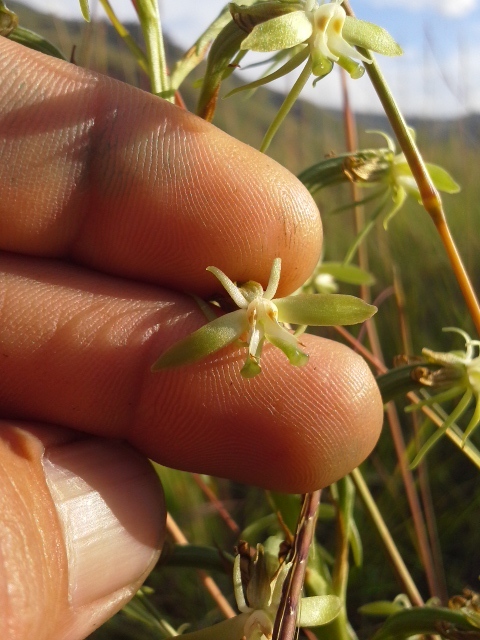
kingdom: Plantae
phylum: Tracheophyta
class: Liliopsida
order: Asparagales
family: Orchidaceae
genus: Habenaria
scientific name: Habenaria humilior
